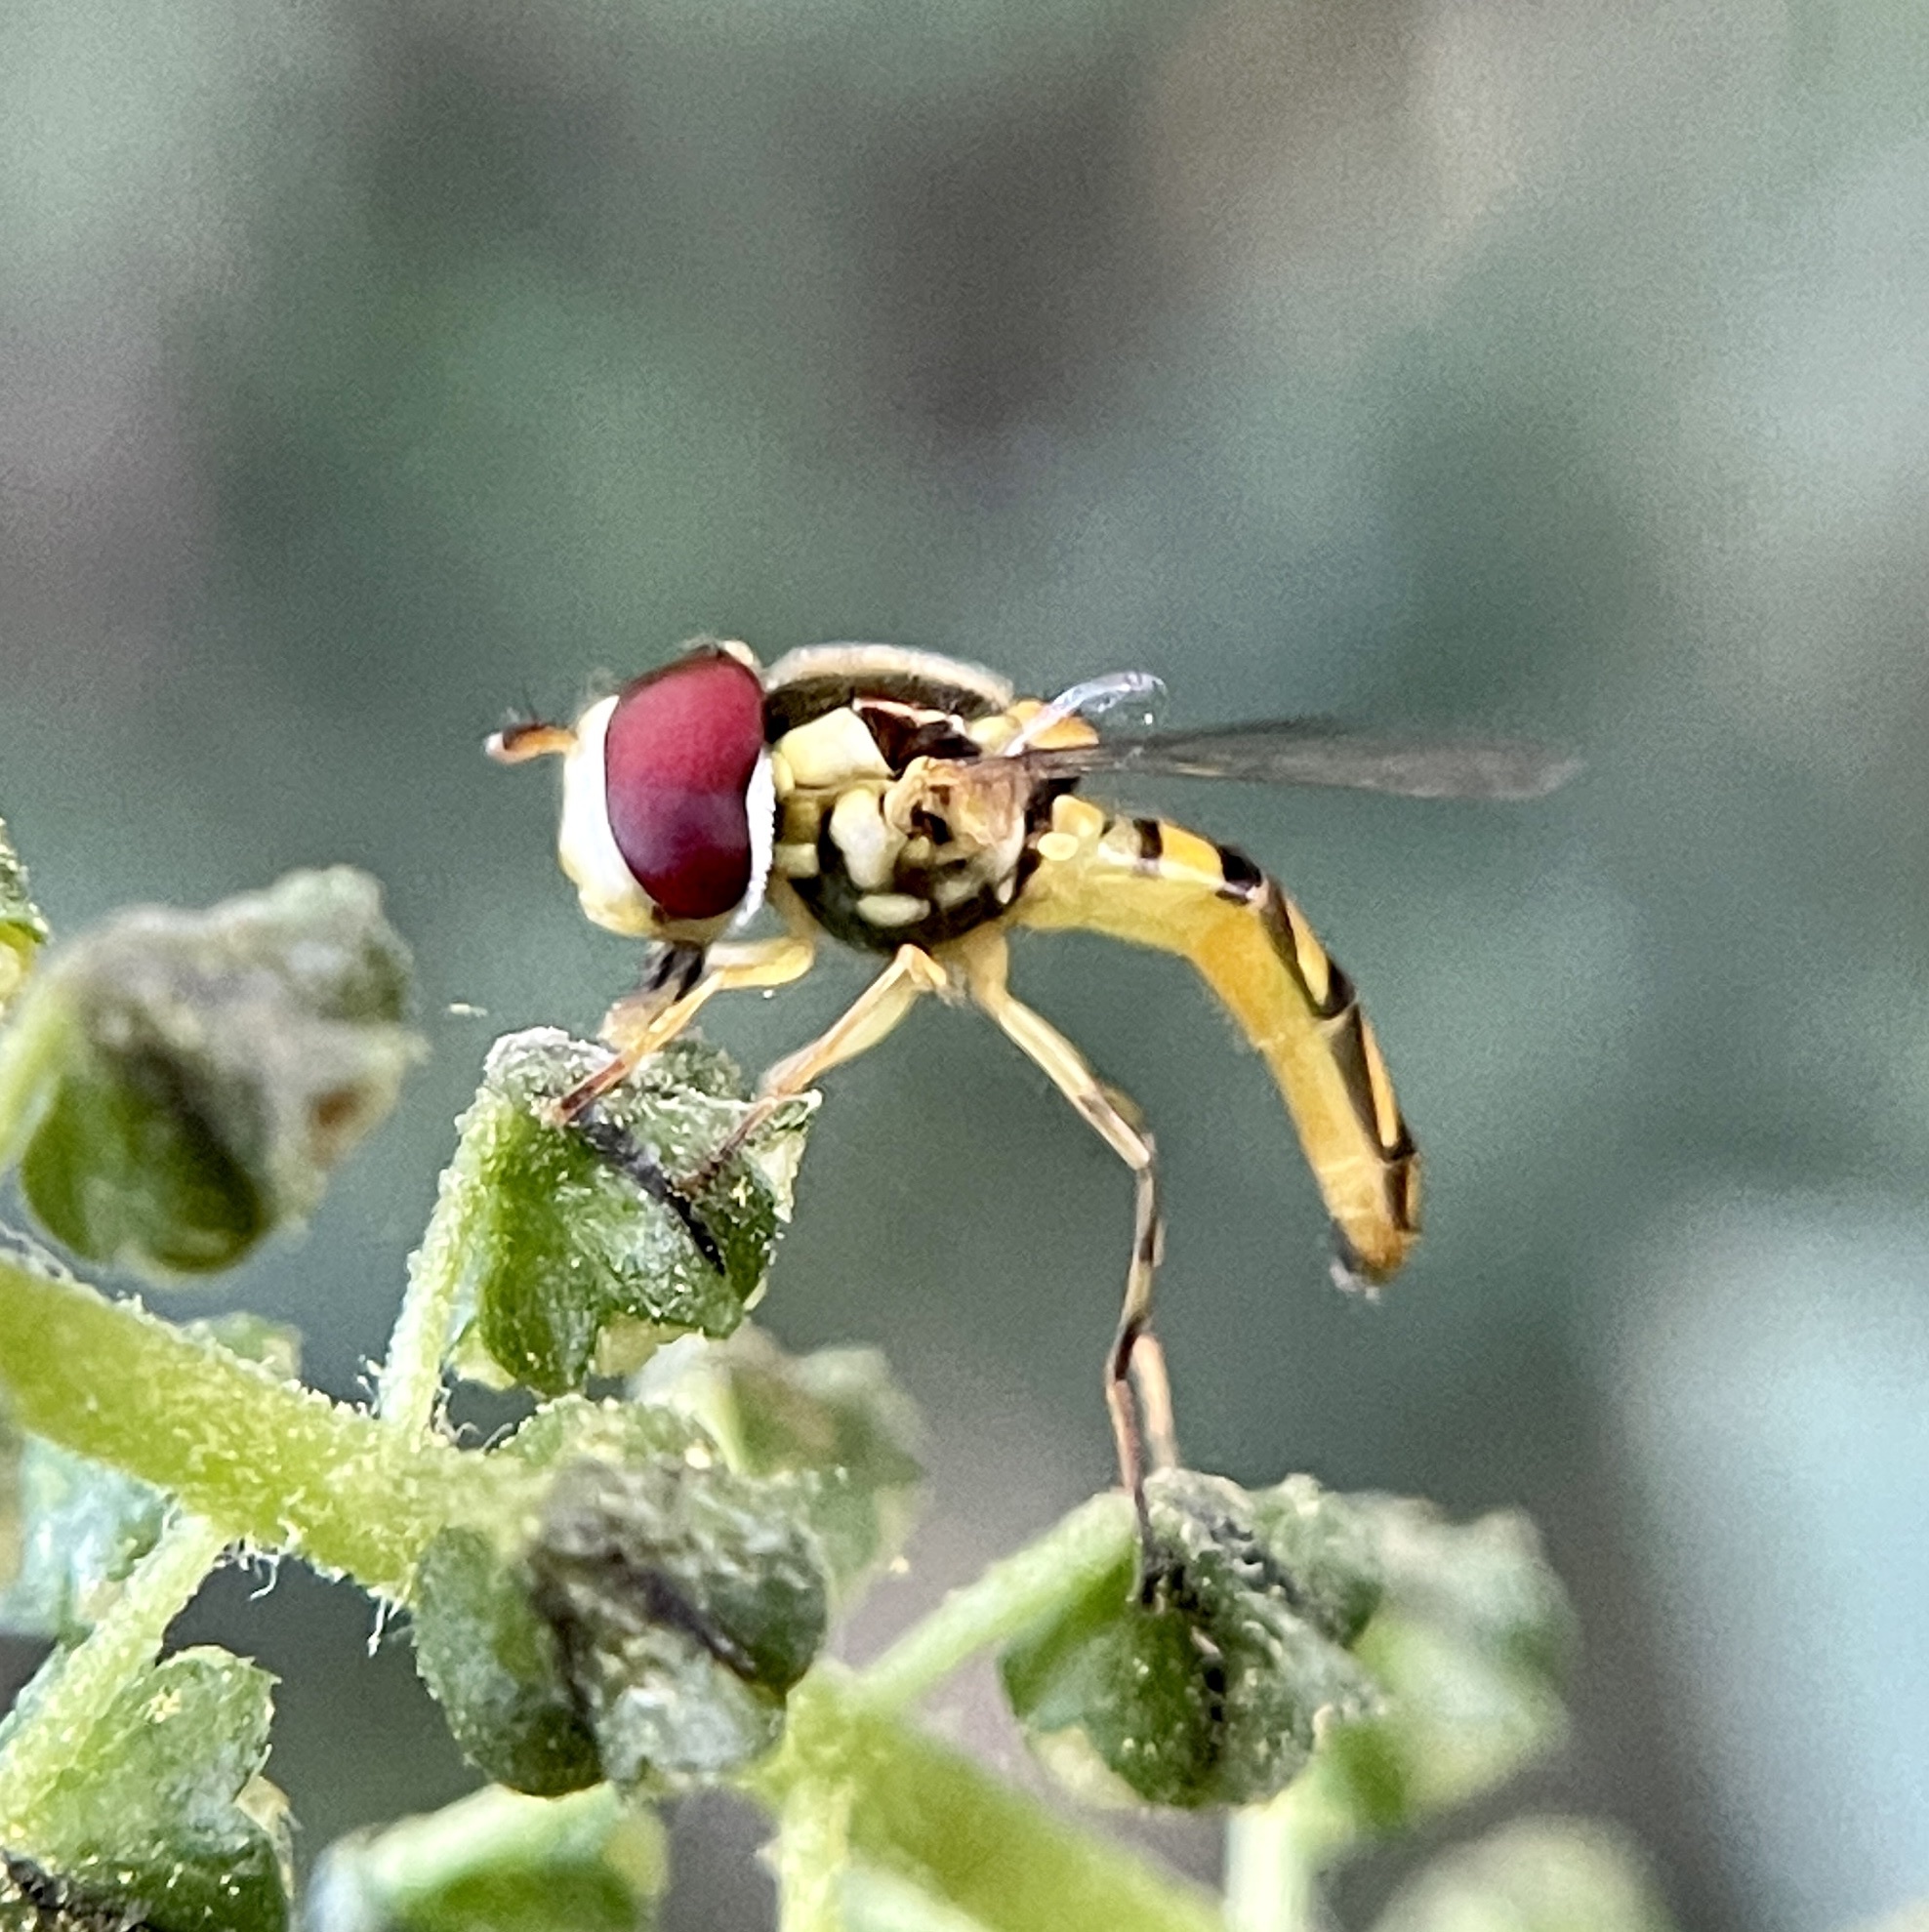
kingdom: Animalia
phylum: Arthropoda
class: Insecta
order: Diptera
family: Syrphidae
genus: Allograpta
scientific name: Allograpta obliqua
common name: Common oblique syrphid
